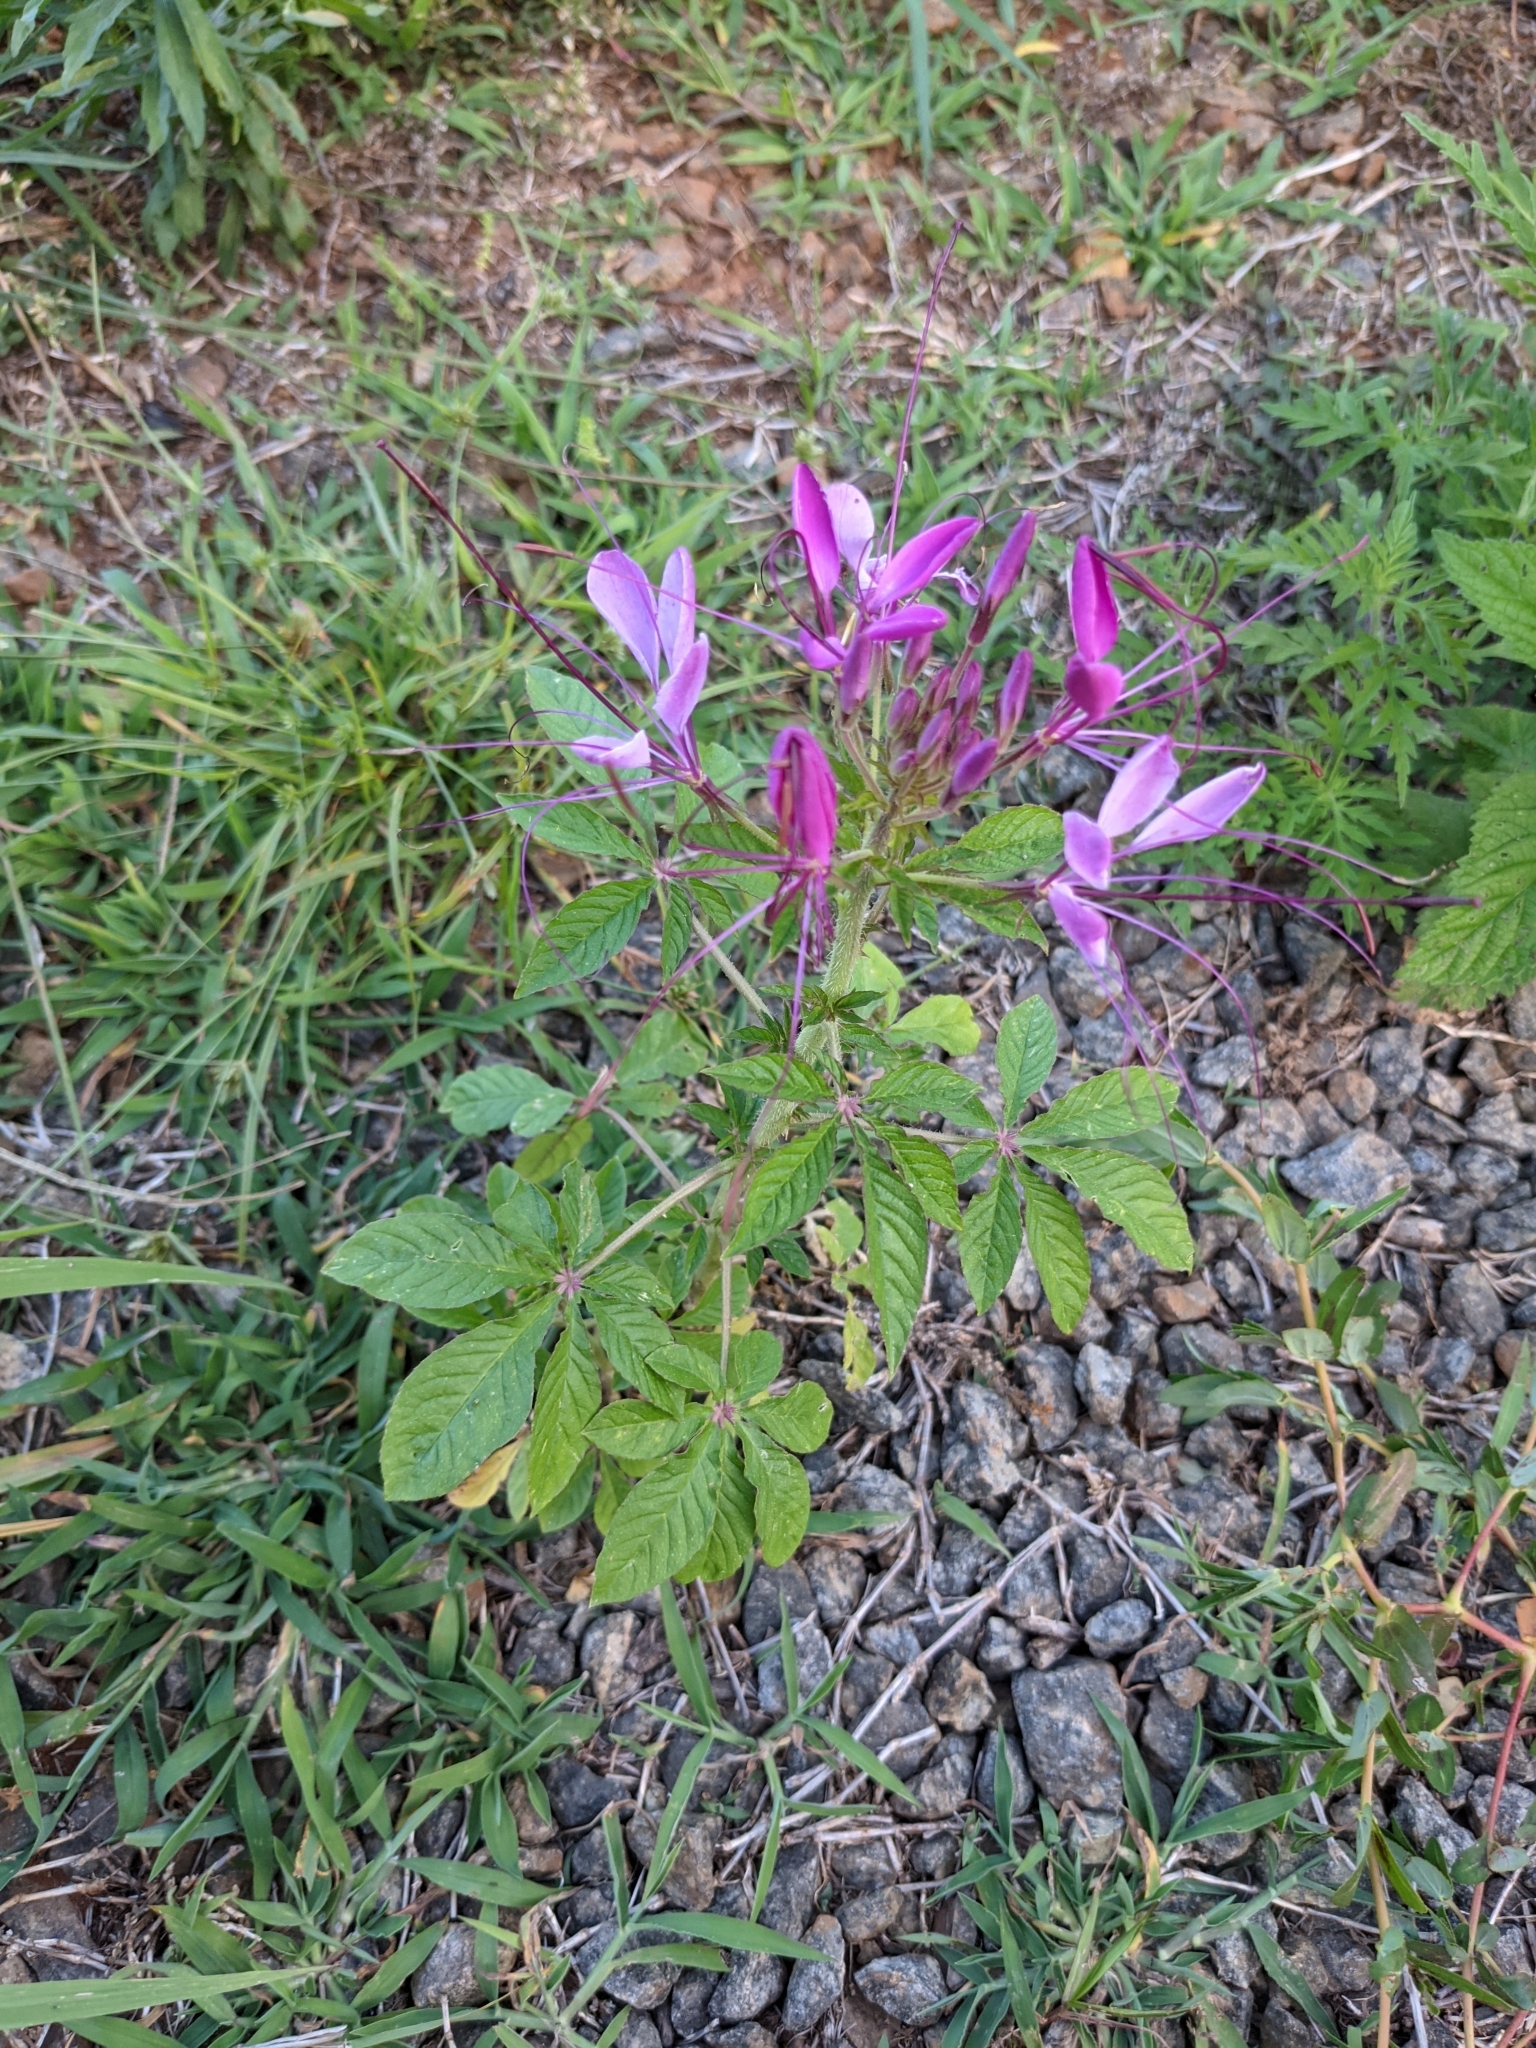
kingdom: Plantae
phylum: Tracheophyta
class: Magnoliopsida
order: Brassicales
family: Cleomaceae
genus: Tarenaya
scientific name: Tarenaya houtteana
